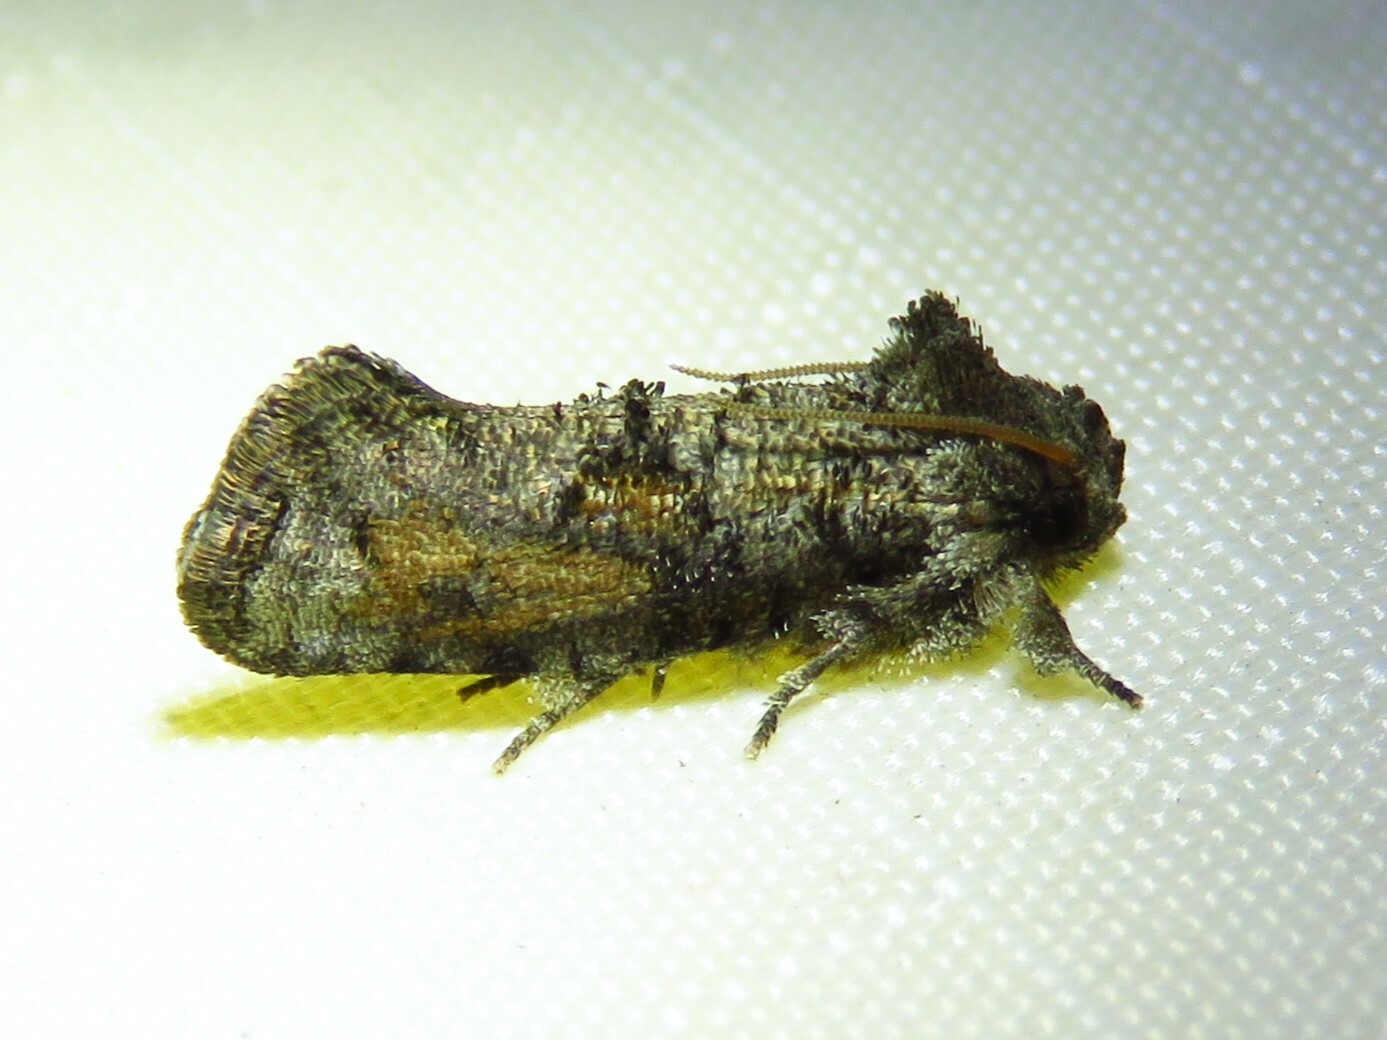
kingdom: Animalia
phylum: Arthropoda
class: Insecta
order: Lepidoptera
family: Tineidae
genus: Acrolophus
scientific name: Acrolophus piger
